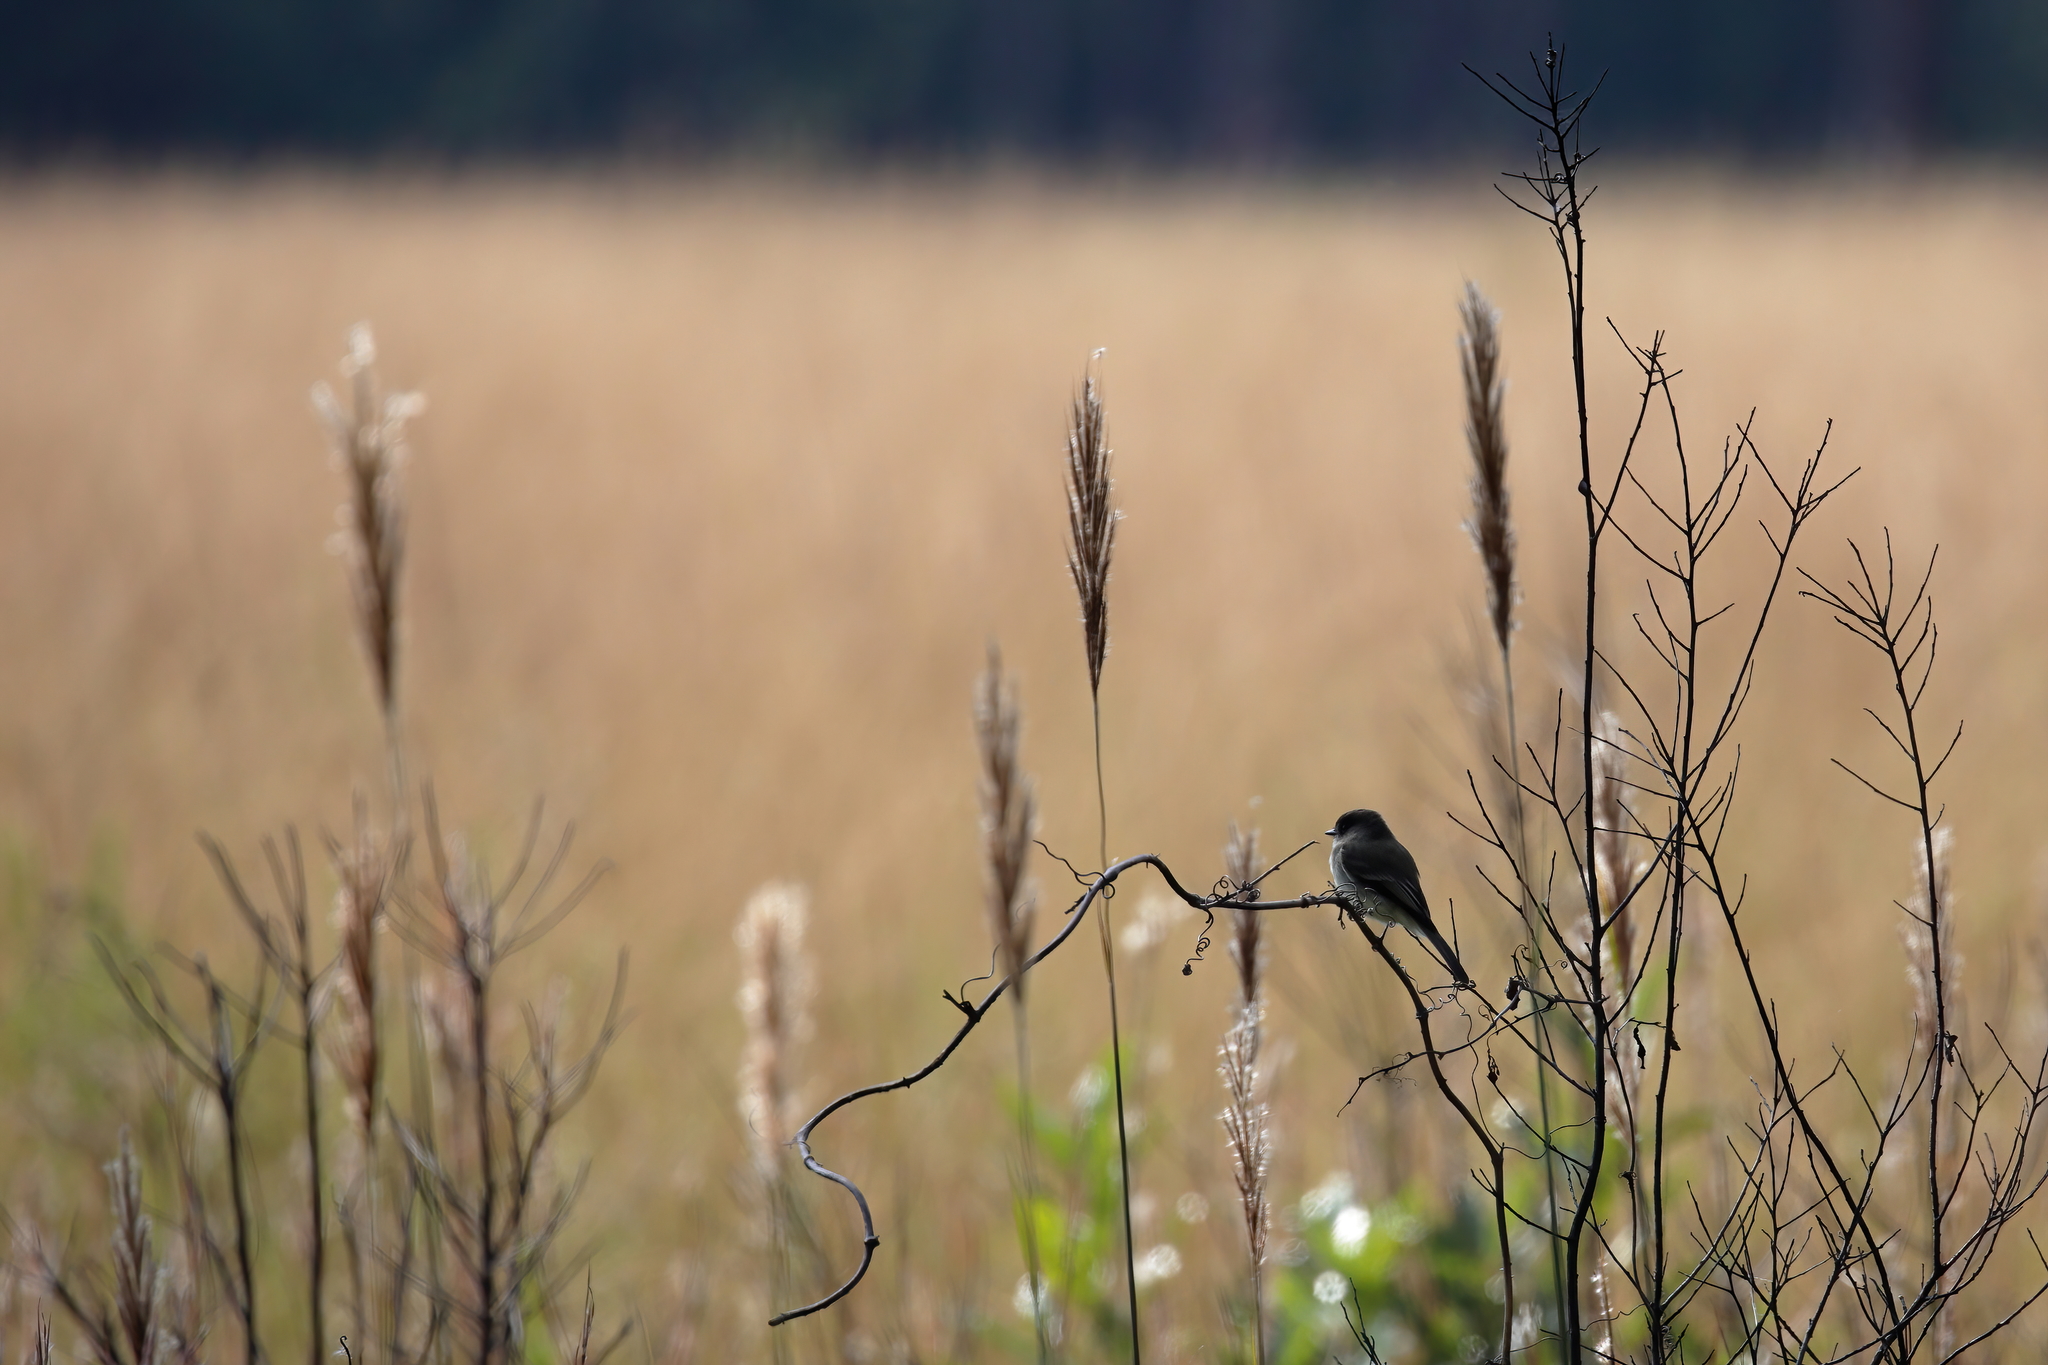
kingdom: Animalia
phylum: Chordata
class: Aves
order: Passeriformes
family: Tyrannidae
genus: Sayornis
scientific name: Sayornis phoebe
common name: Eastern phoebe
